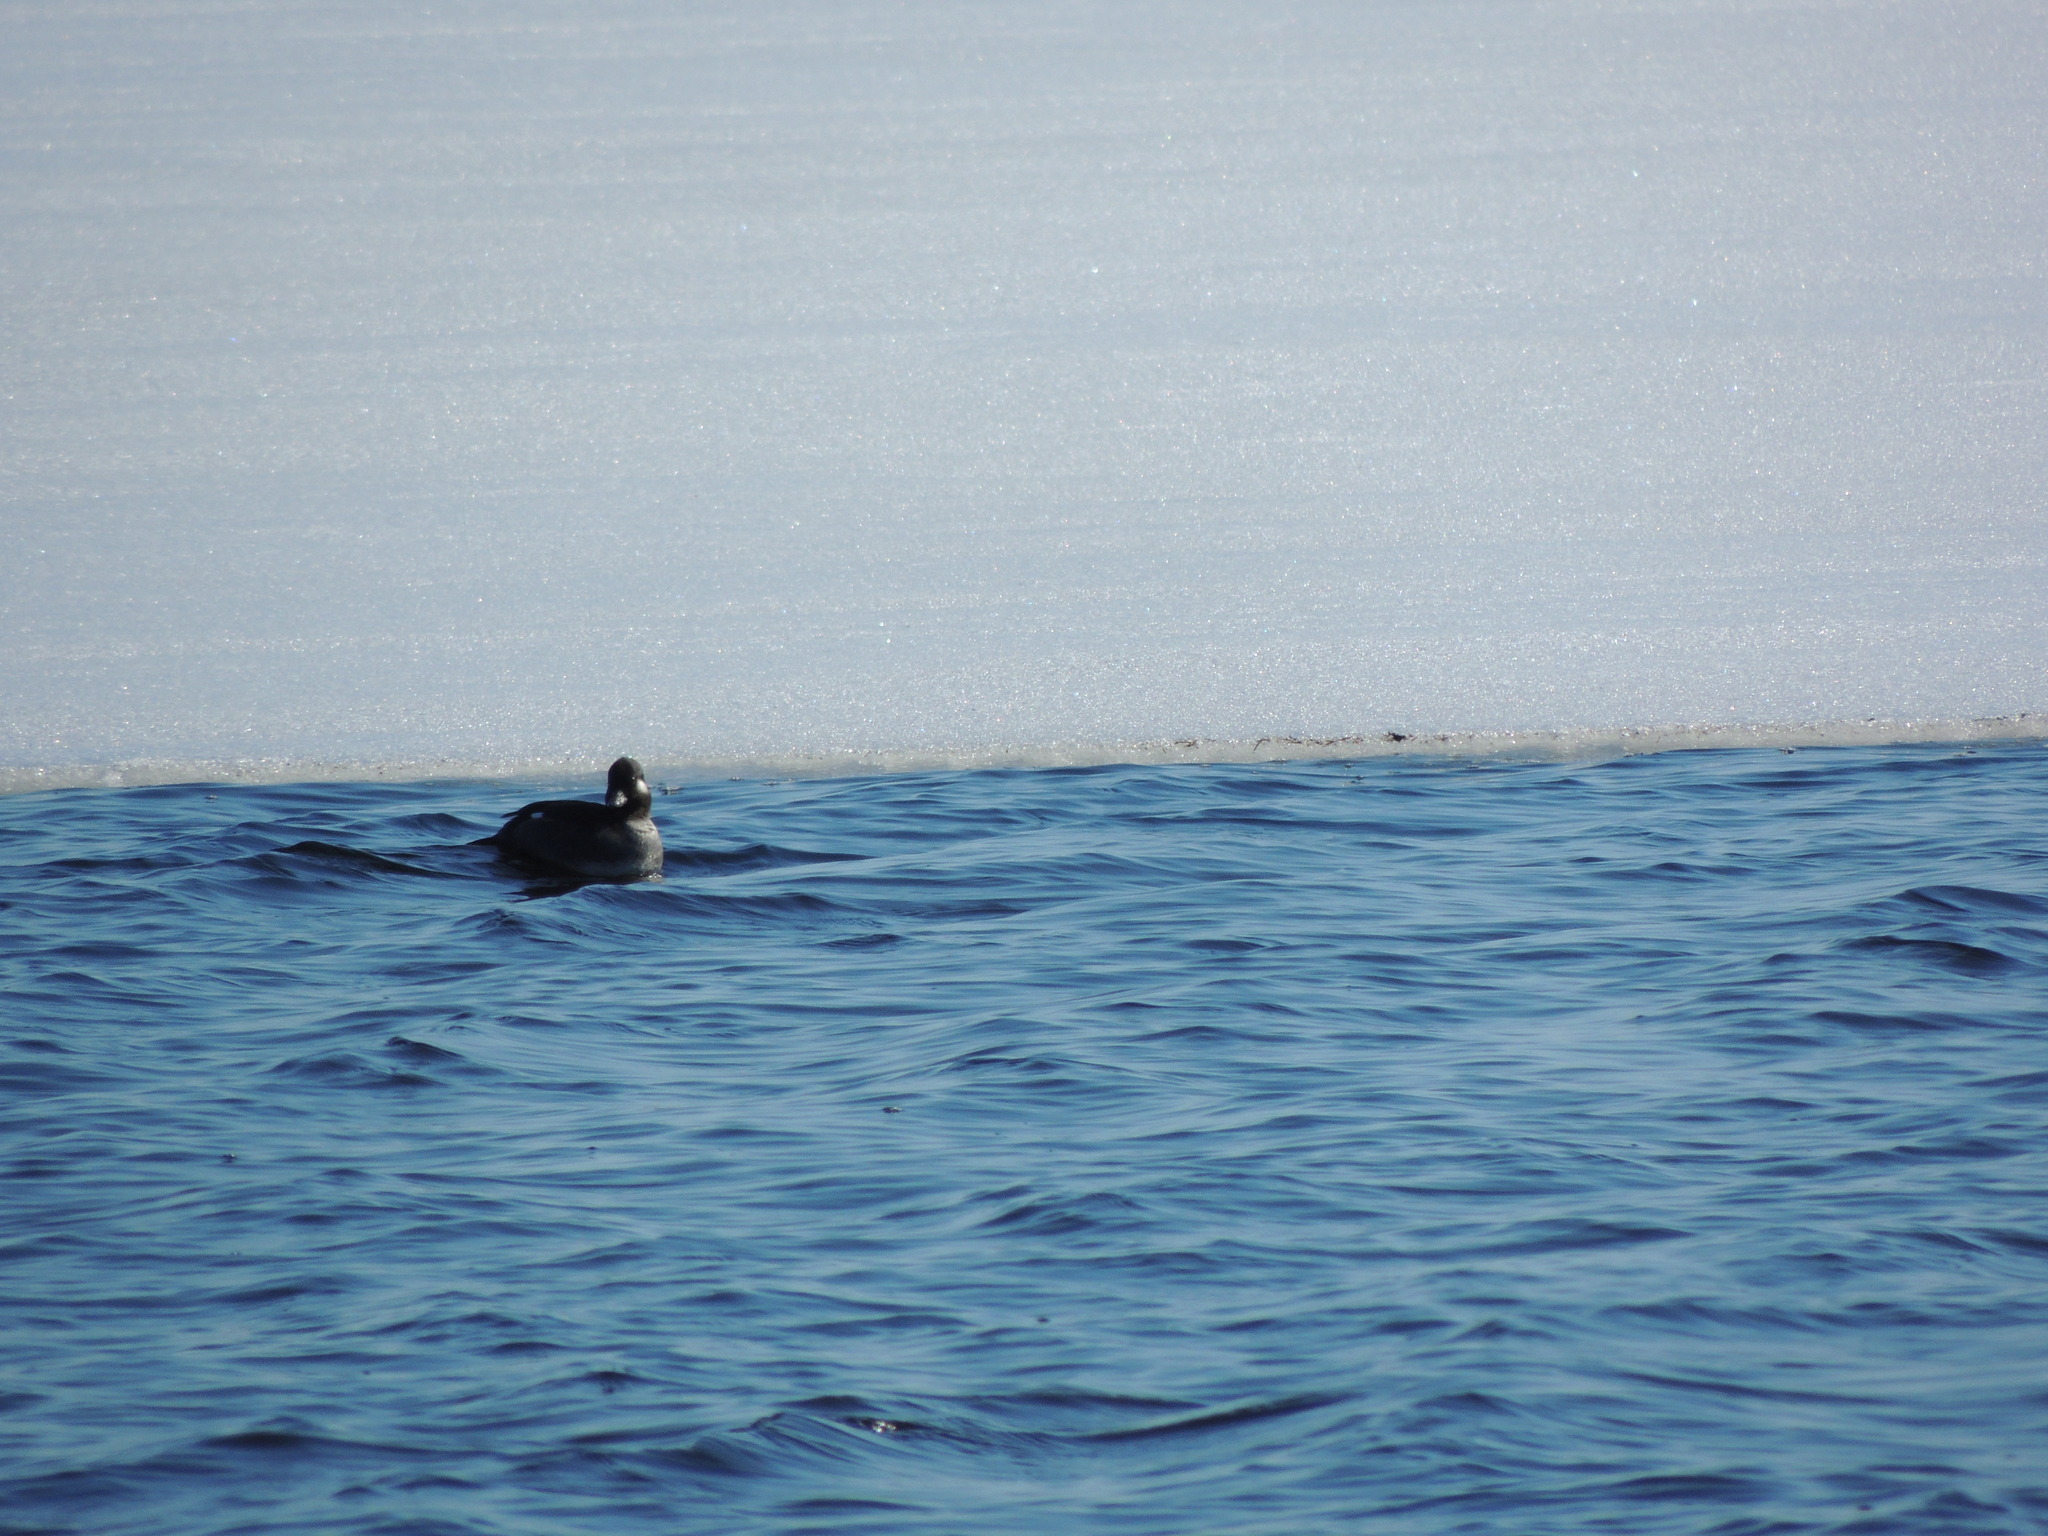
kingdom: Animalia
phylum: Chordata
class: Aves
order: Anseriformes
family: Anatidae
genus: Bucephala
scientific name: Bucephala albeola
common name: Bufflehead
